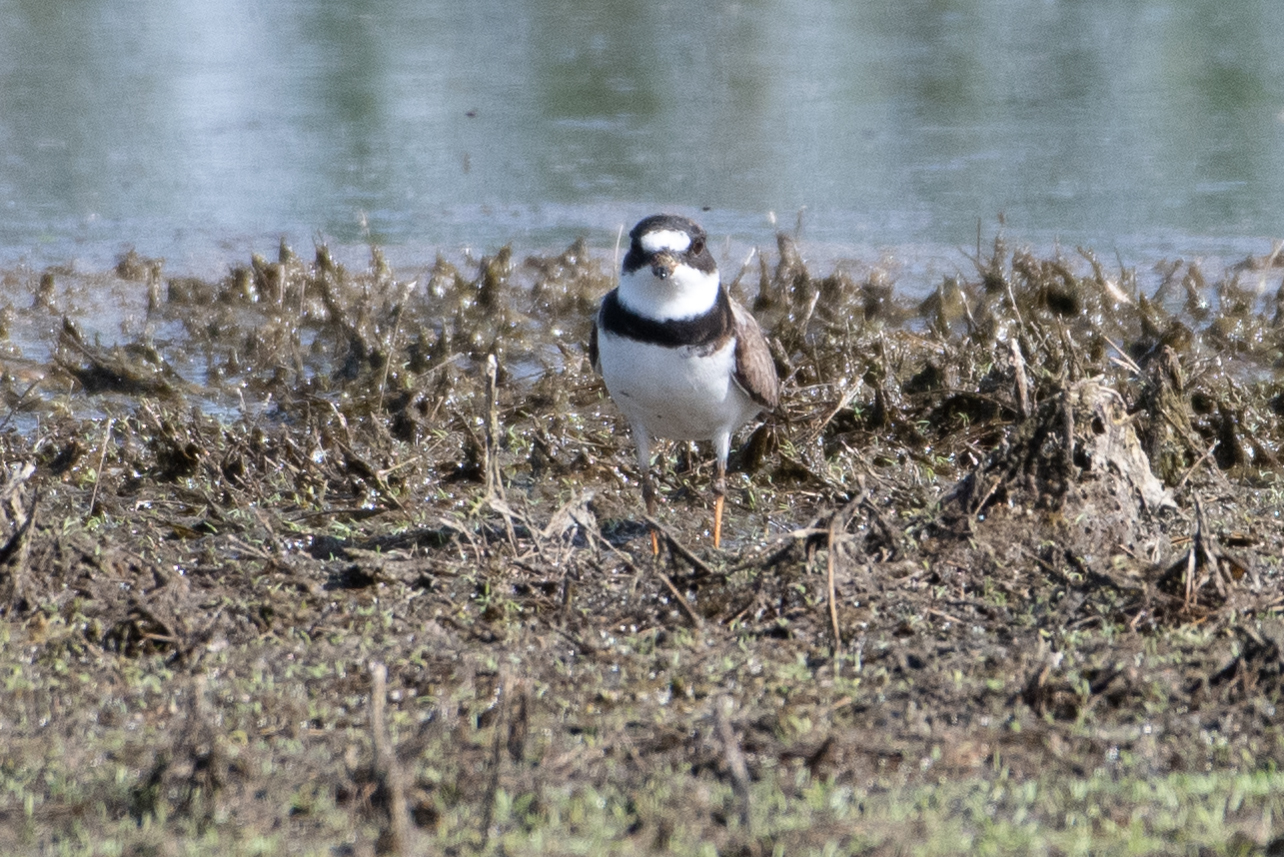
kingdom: Animalia
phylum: Chordata
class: Aves
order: Charadriiformes
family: Charadriidae
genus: Charadrius
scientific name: Charadrius semipalmatus
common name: Semipalmated plover
